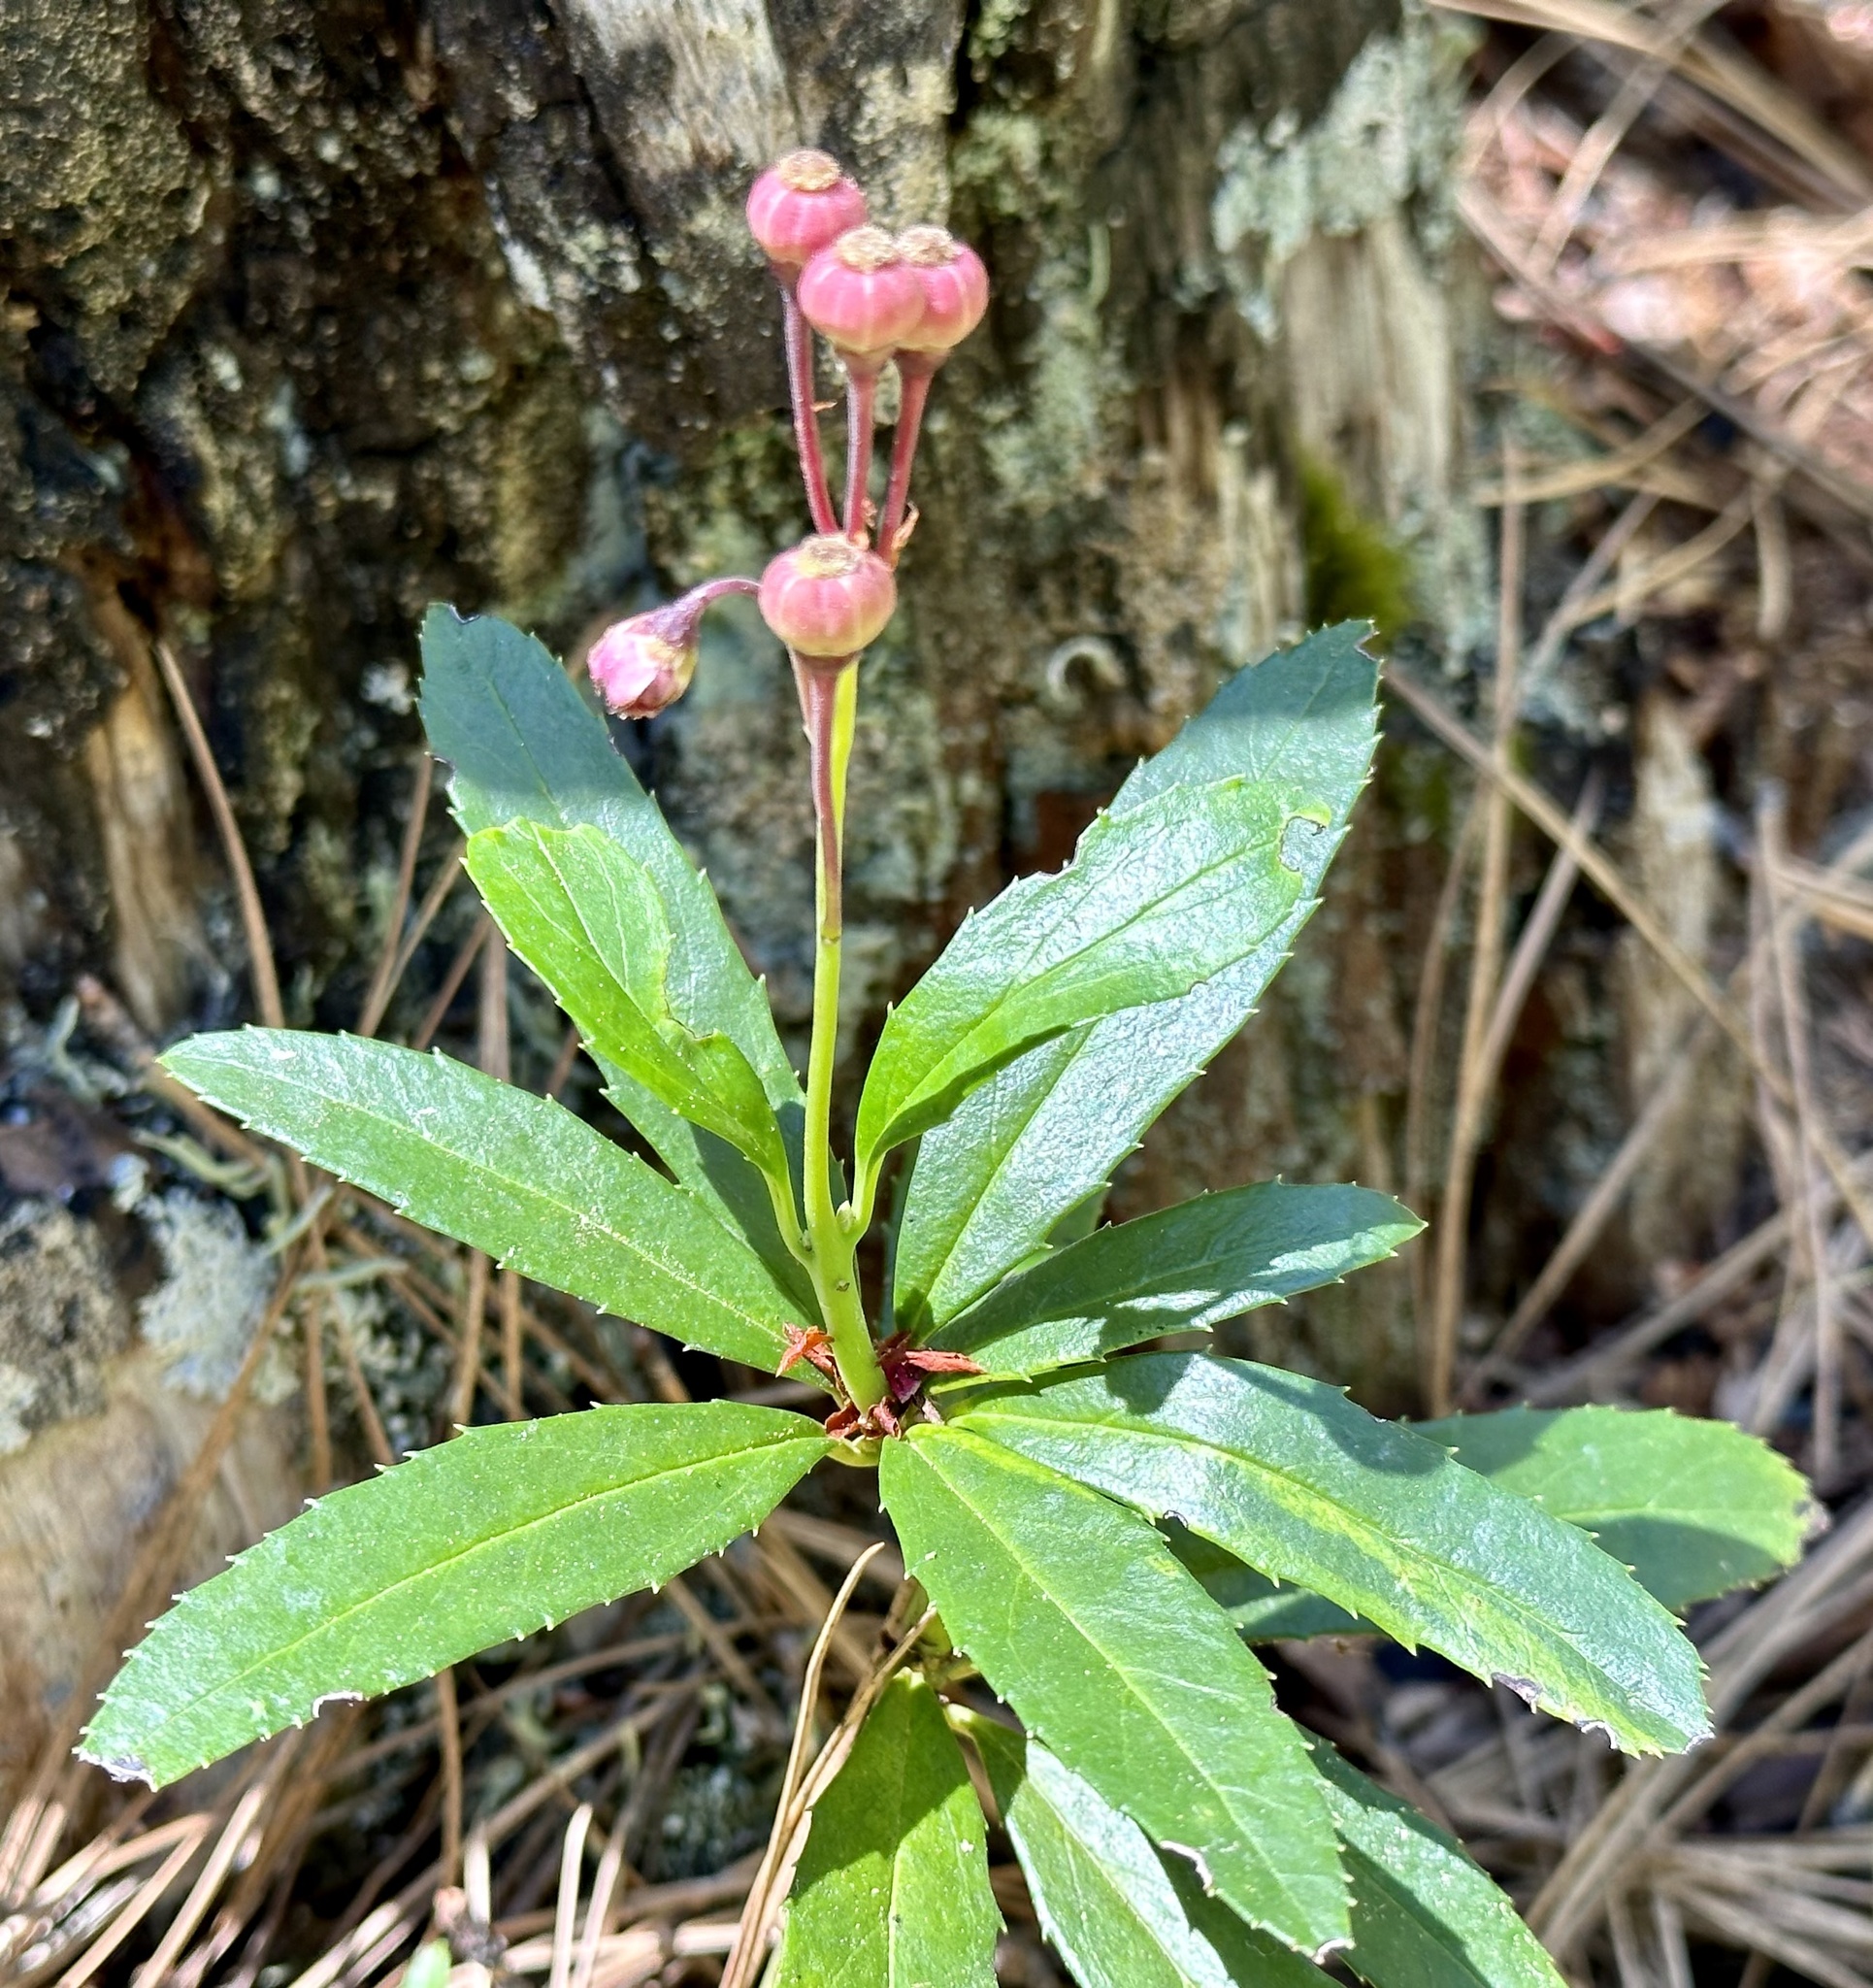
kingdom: Plantae
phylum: Tracheophyta
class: Magnoliopsida
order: Ericales
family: Ericaceae
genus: Chimaphila
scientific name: Chimaphila umbellata
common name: Pipsissewa
